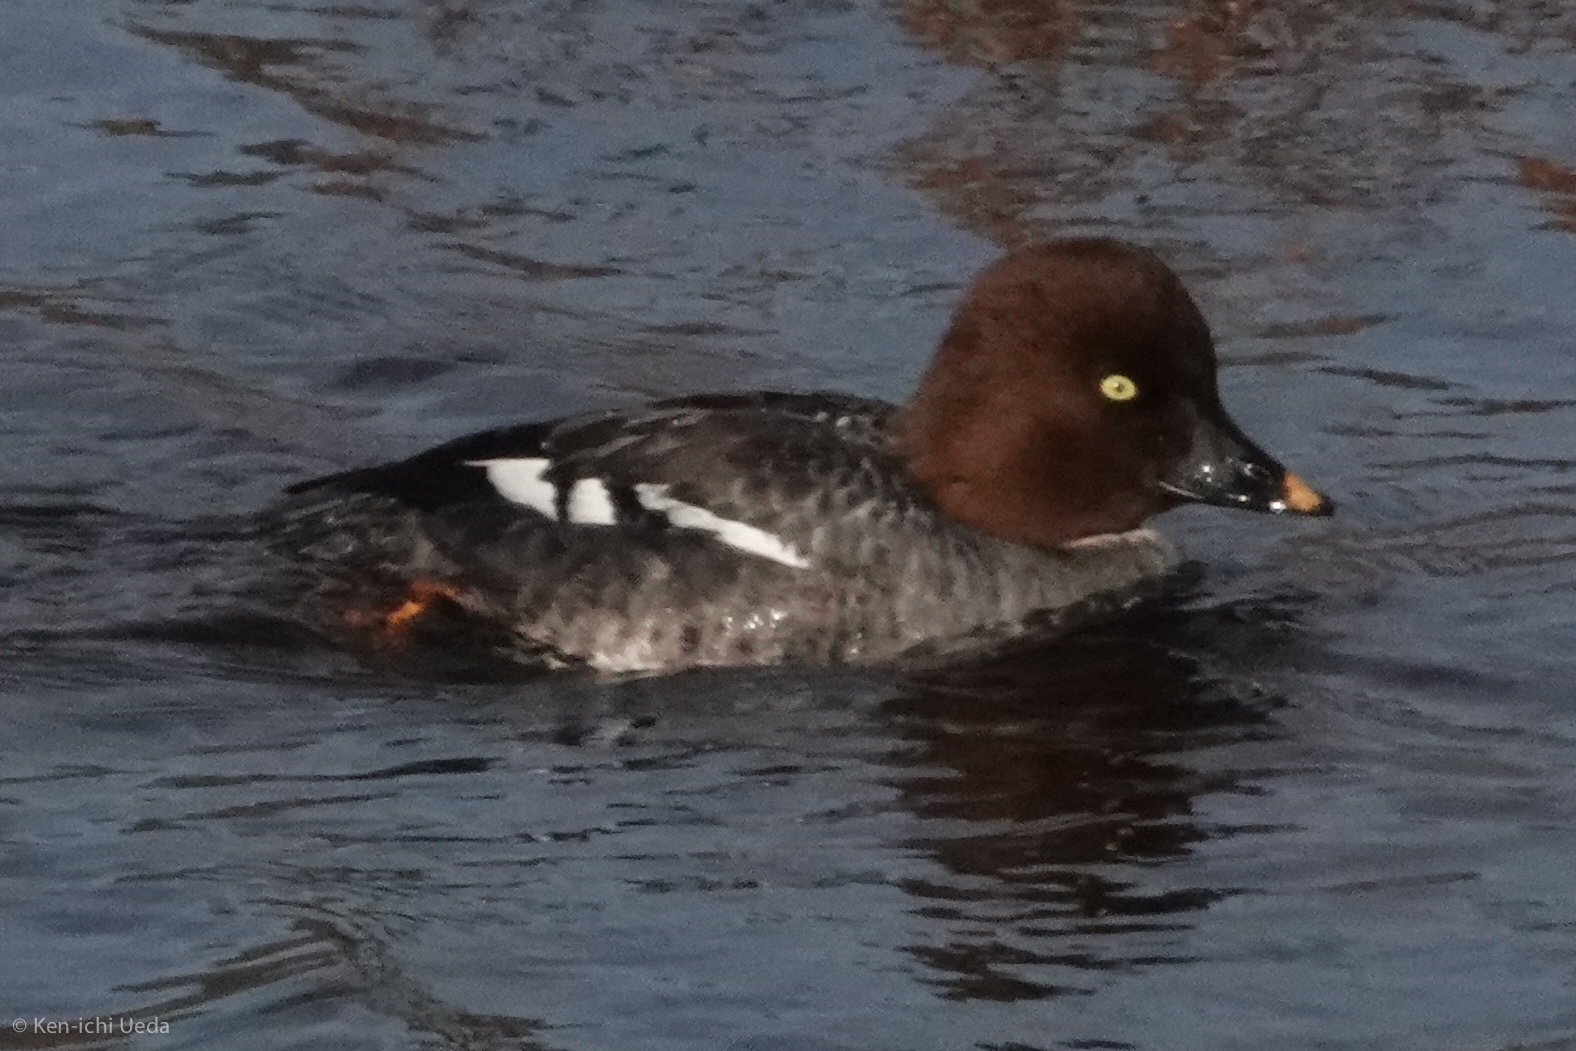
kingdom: Animalia
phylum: Chordata
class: Aves
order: Anseriformes
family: Anatidae
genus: Bucephala
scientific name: Bucephala clangula
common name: Common goldeneye
